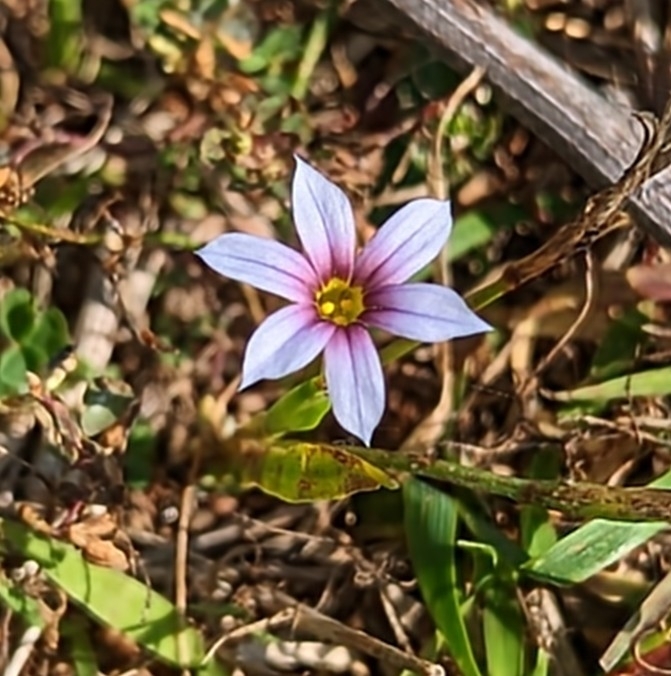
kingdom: Plantae
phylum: Tracheophyta
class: Liliopsida
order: Asparagales
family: Iridaceae
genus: Sisyrinchium
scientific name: Sisyrinchium micranthum
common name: Bermuda pigroot
